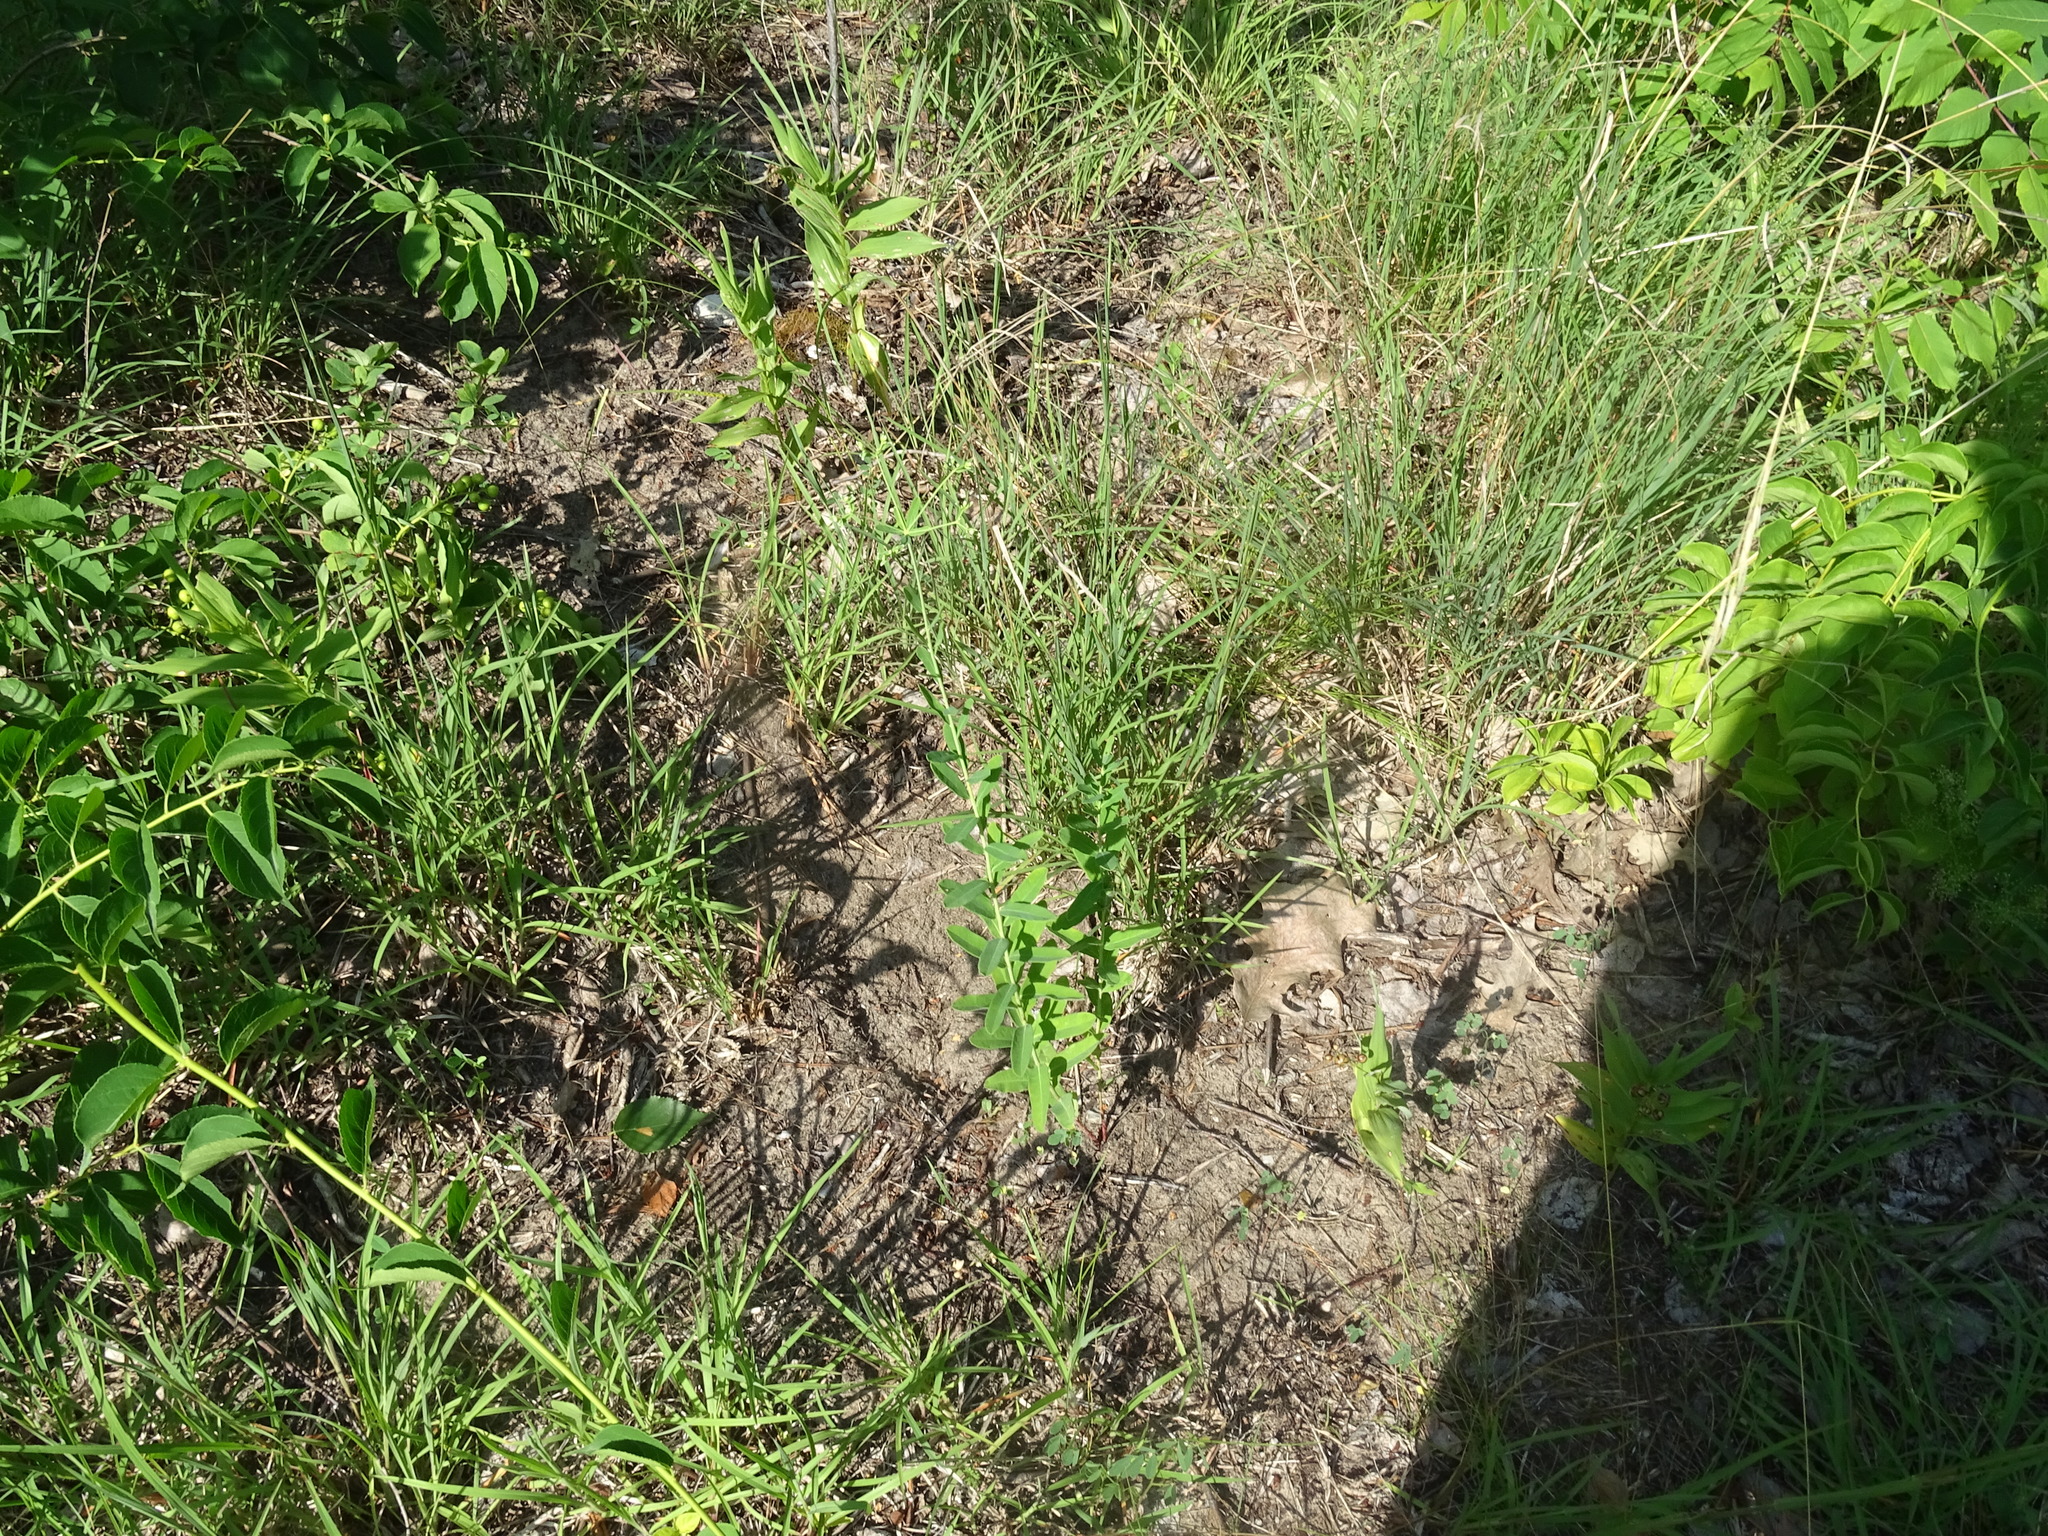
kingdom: Plantae
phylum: Tracheophyta
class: Magnoliopsida
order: Malpighiales
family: Euphorbiaceae
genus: Euphorbia
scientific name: Euphorbia corollata
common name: Flowering spurge
